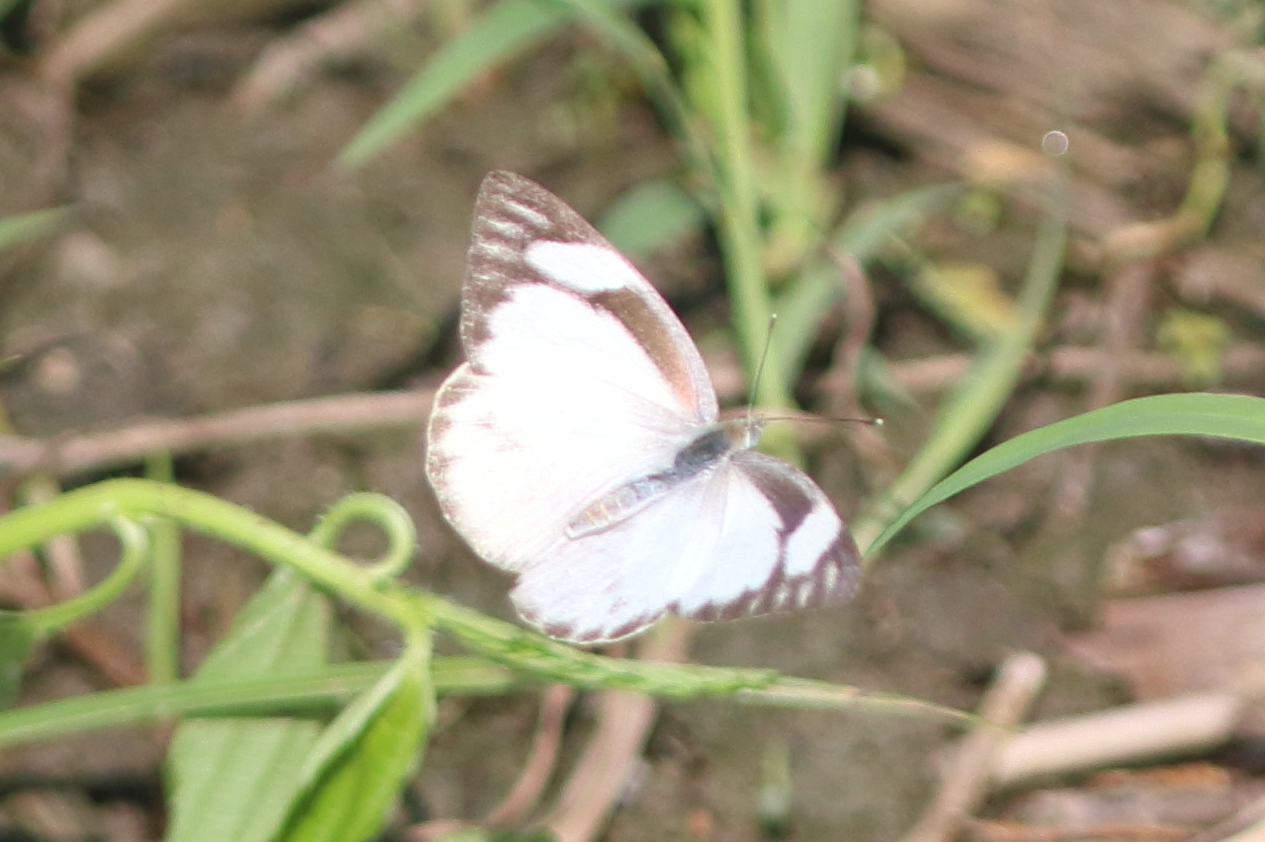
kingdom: Animalia
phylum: Arthropoda
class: Insecta
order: Lepidoptera
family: Pieridae
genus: Appias
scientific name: Appias libythea
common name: Striped albatross
